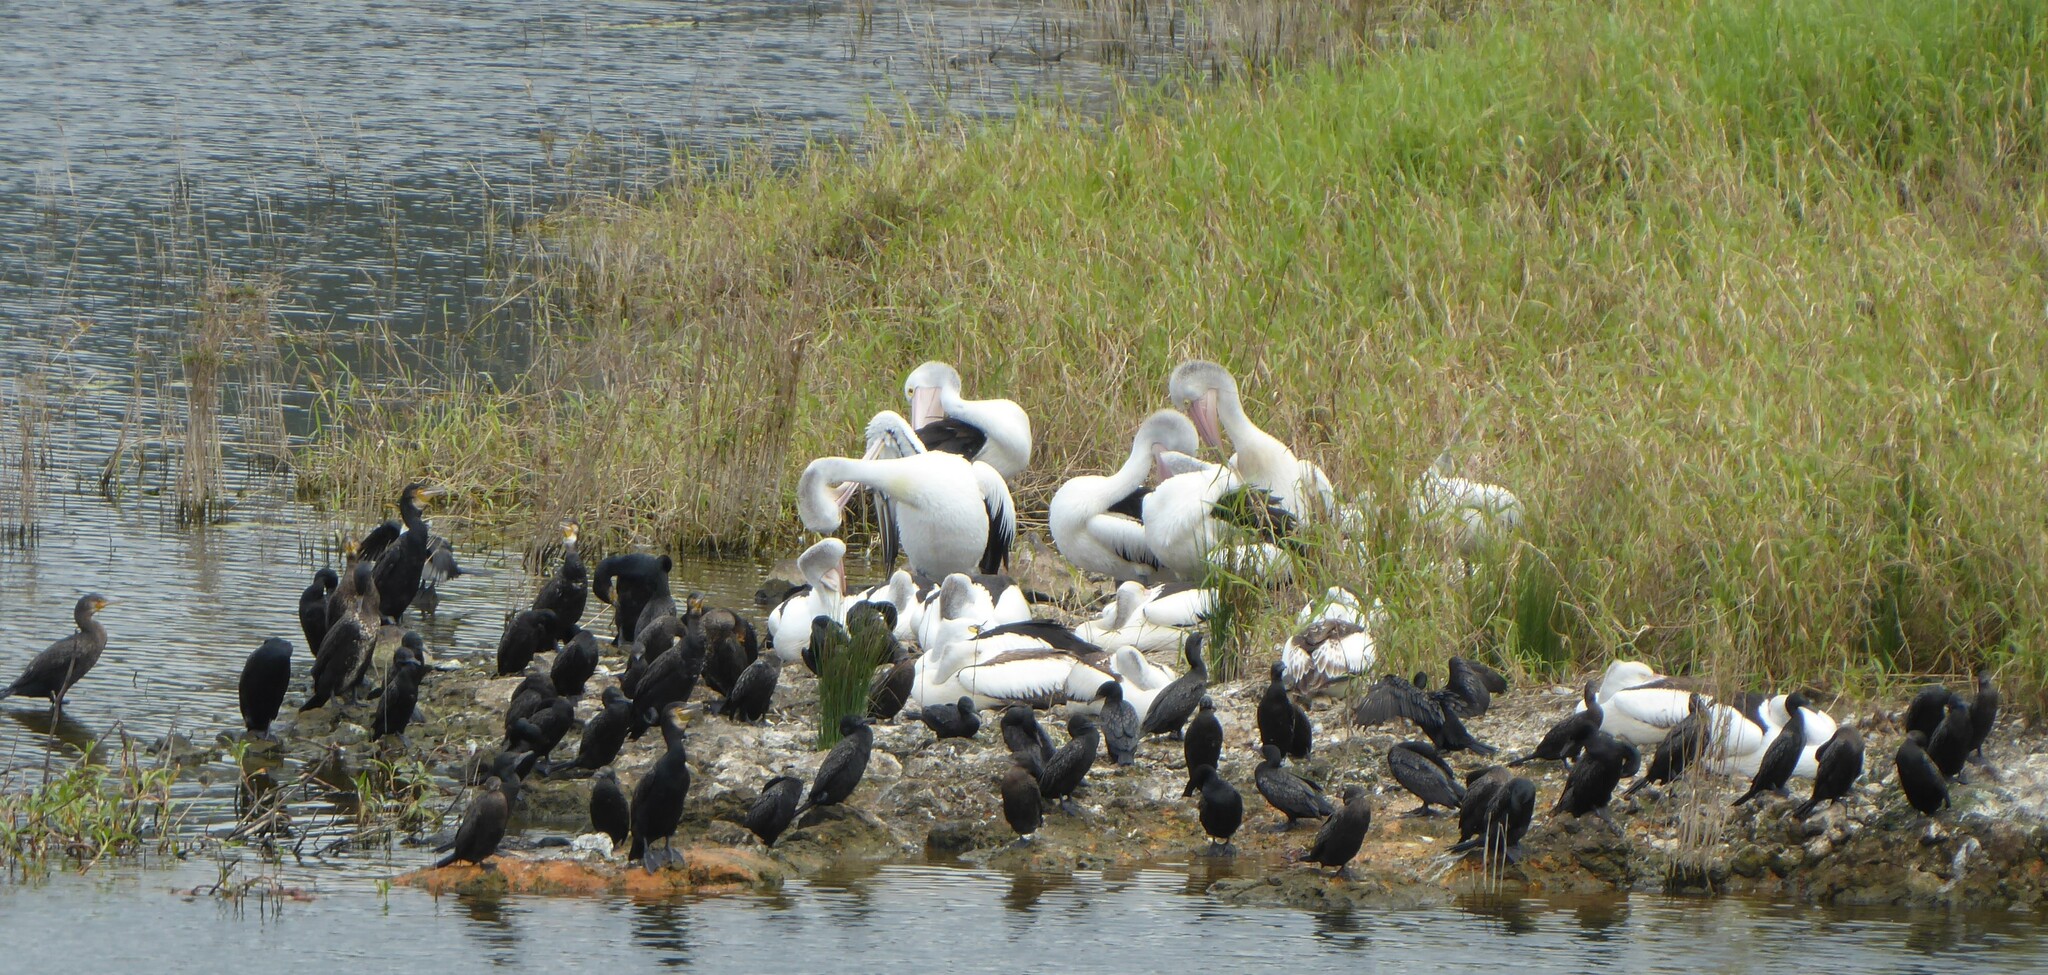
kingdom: Animalia
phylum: Chordata
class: Aves
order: Pelecaniformes
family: Pelecanidae
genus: Pelecanus
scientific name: Pelecanus conspicillatus
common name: Australian pelican
